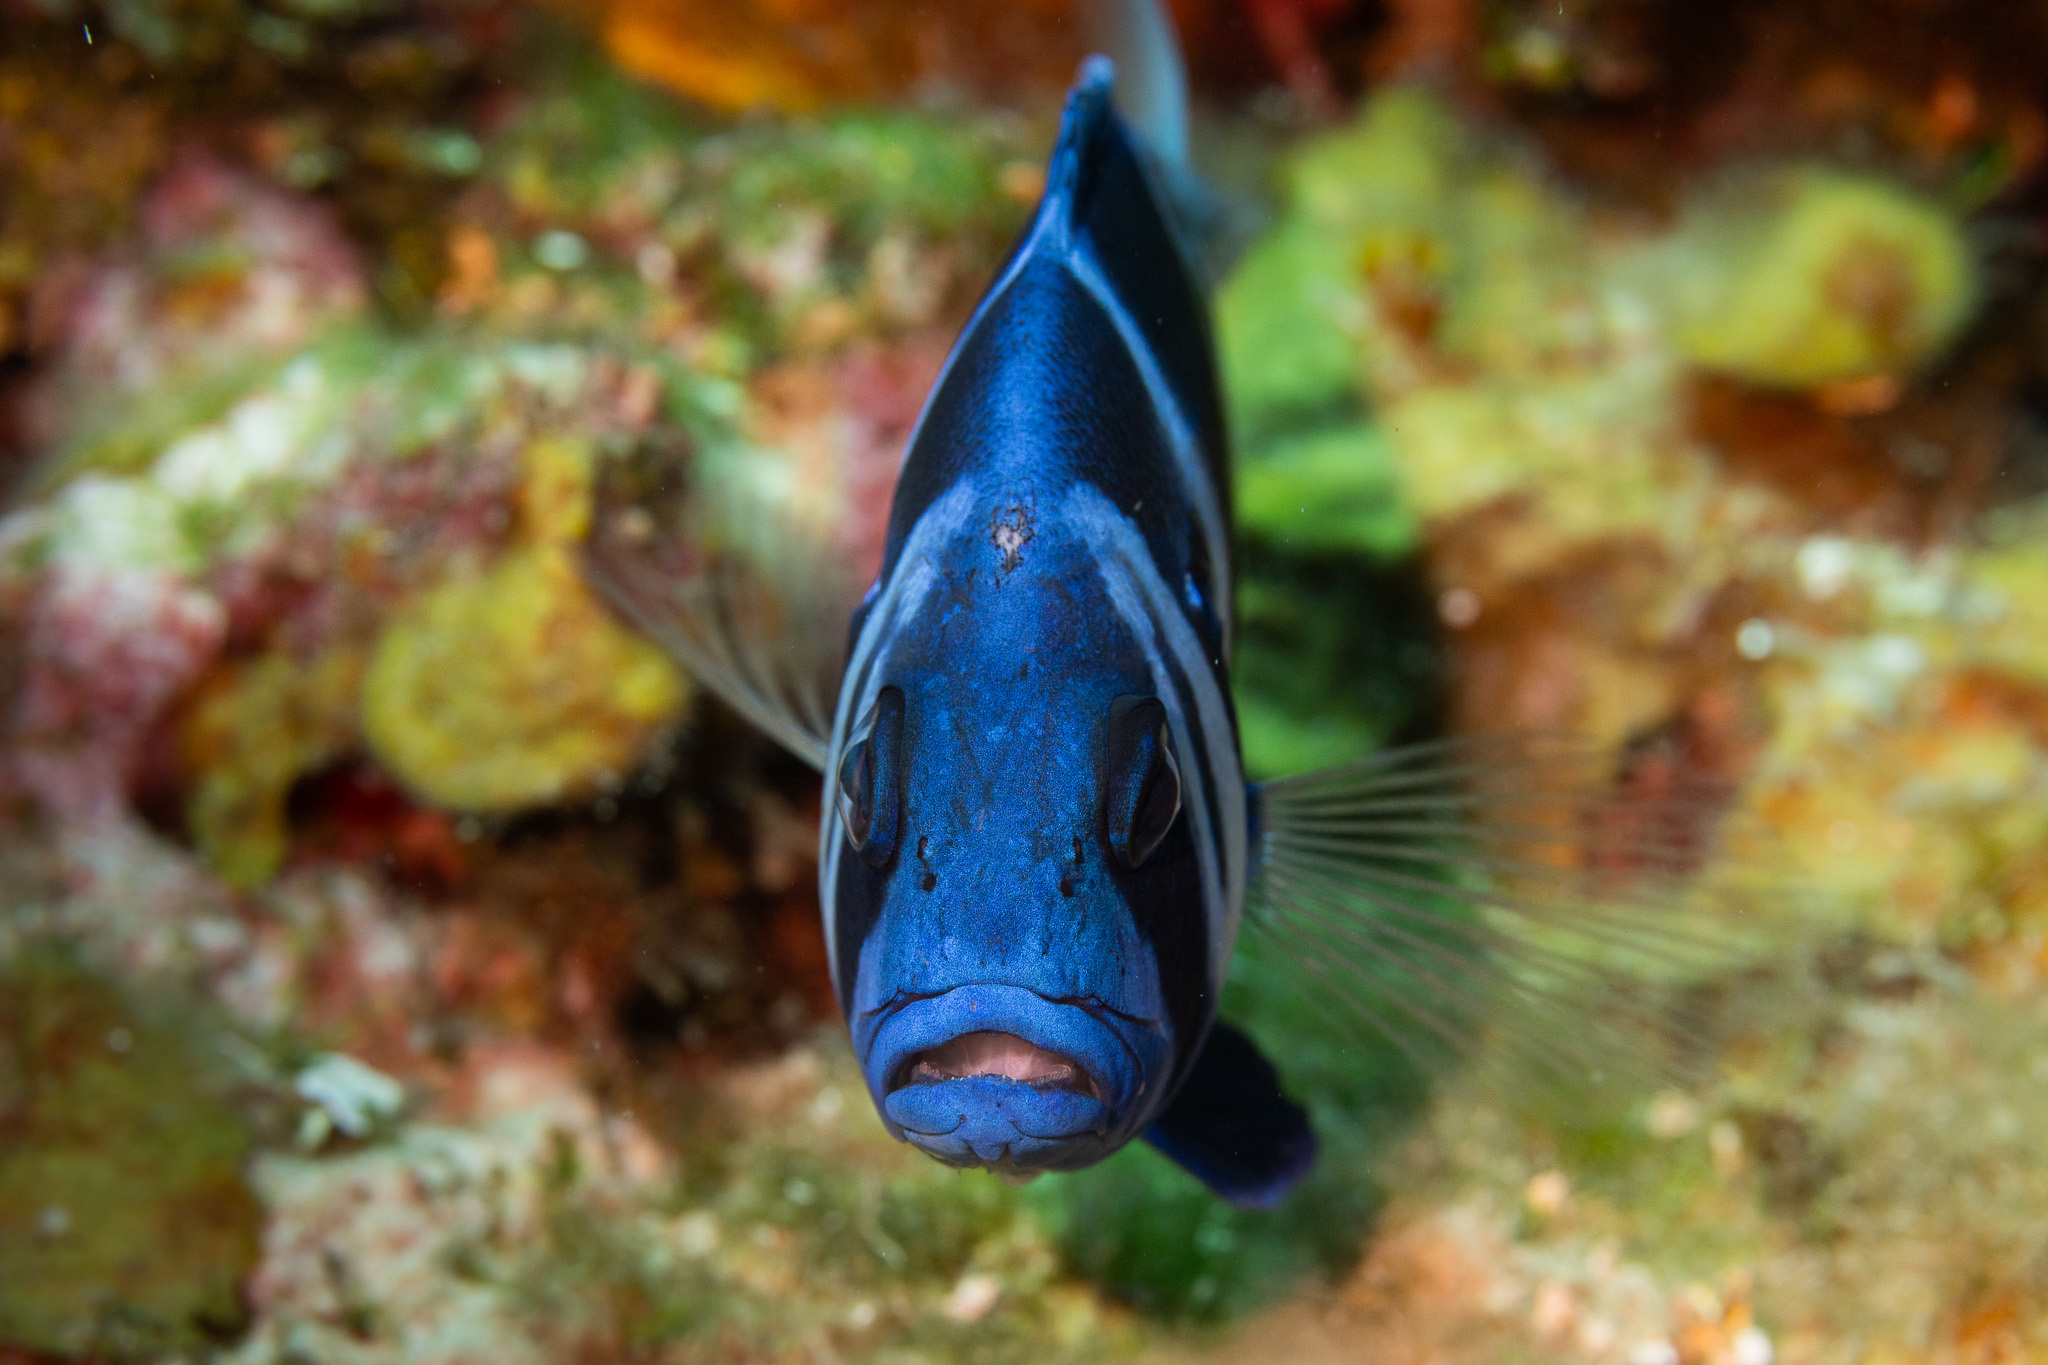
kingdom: Animalia
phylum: Chordata
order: Perciformes
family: Serranidae
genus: Hypoplectrus
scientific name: Hypoplectrus indigo
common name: Indigo hamlet
